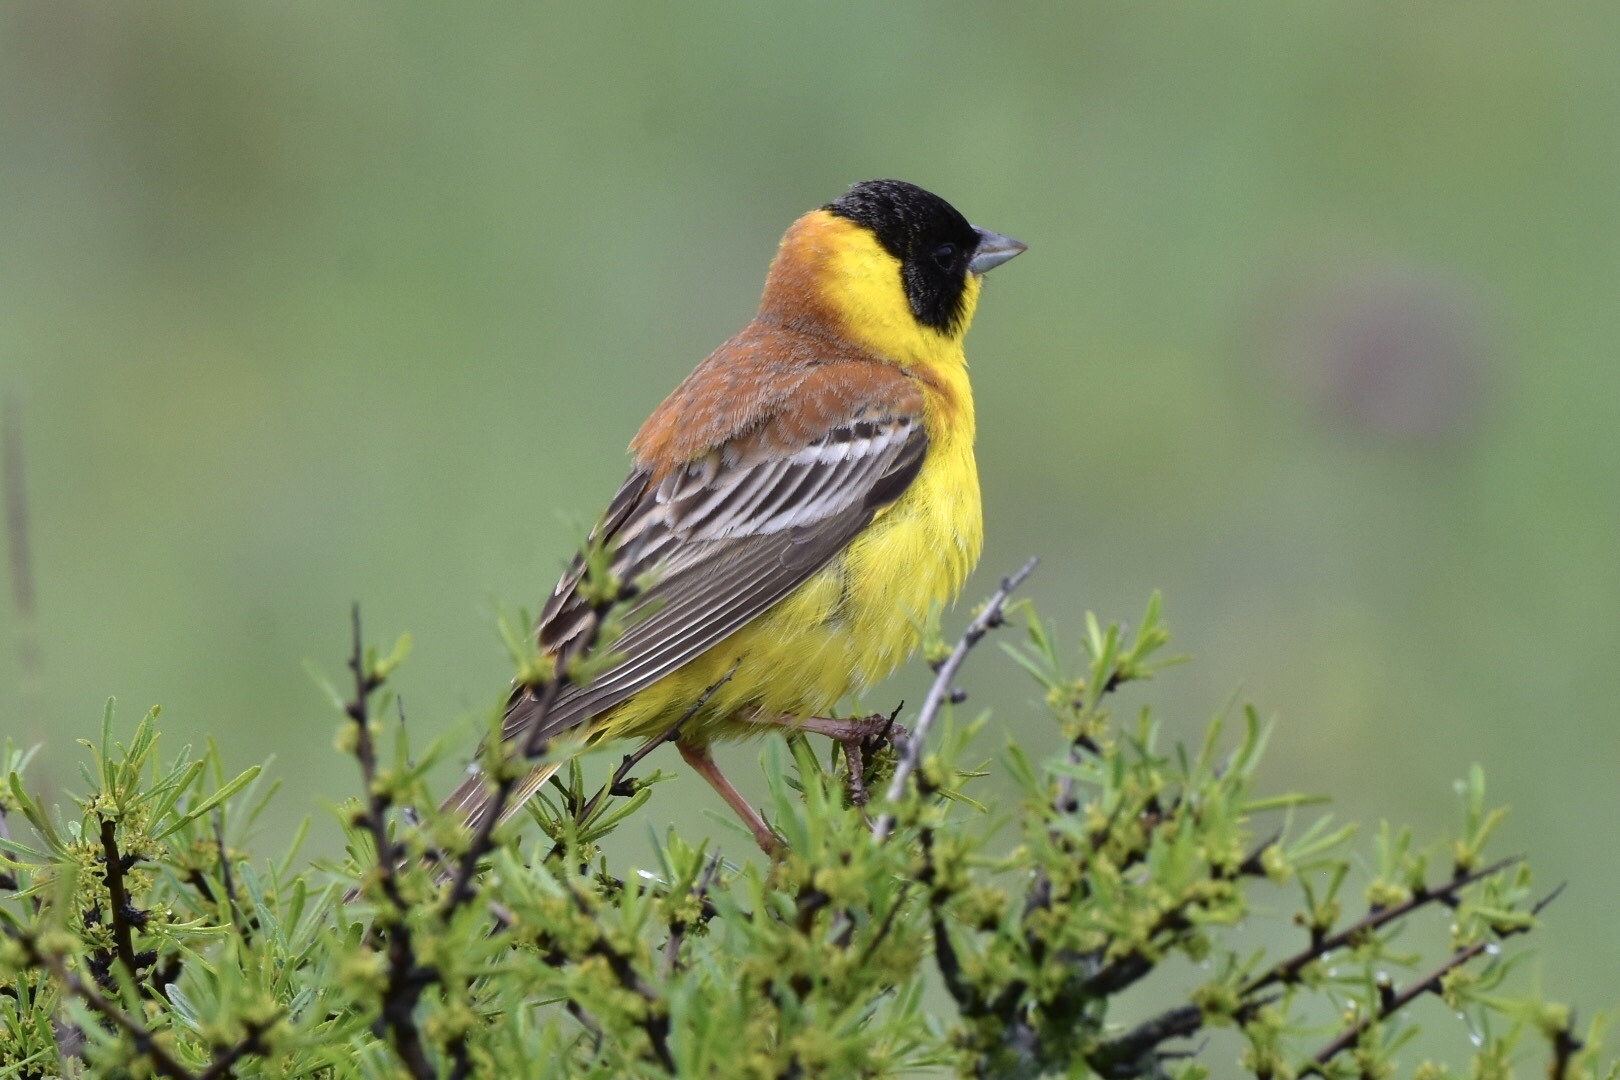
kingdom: Animalia
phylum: Chordata
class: Aves
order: Passeriformes
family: Emberizidae
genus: Emberiza
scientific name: Emberiza melanocephala
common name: Black-headed bunting
